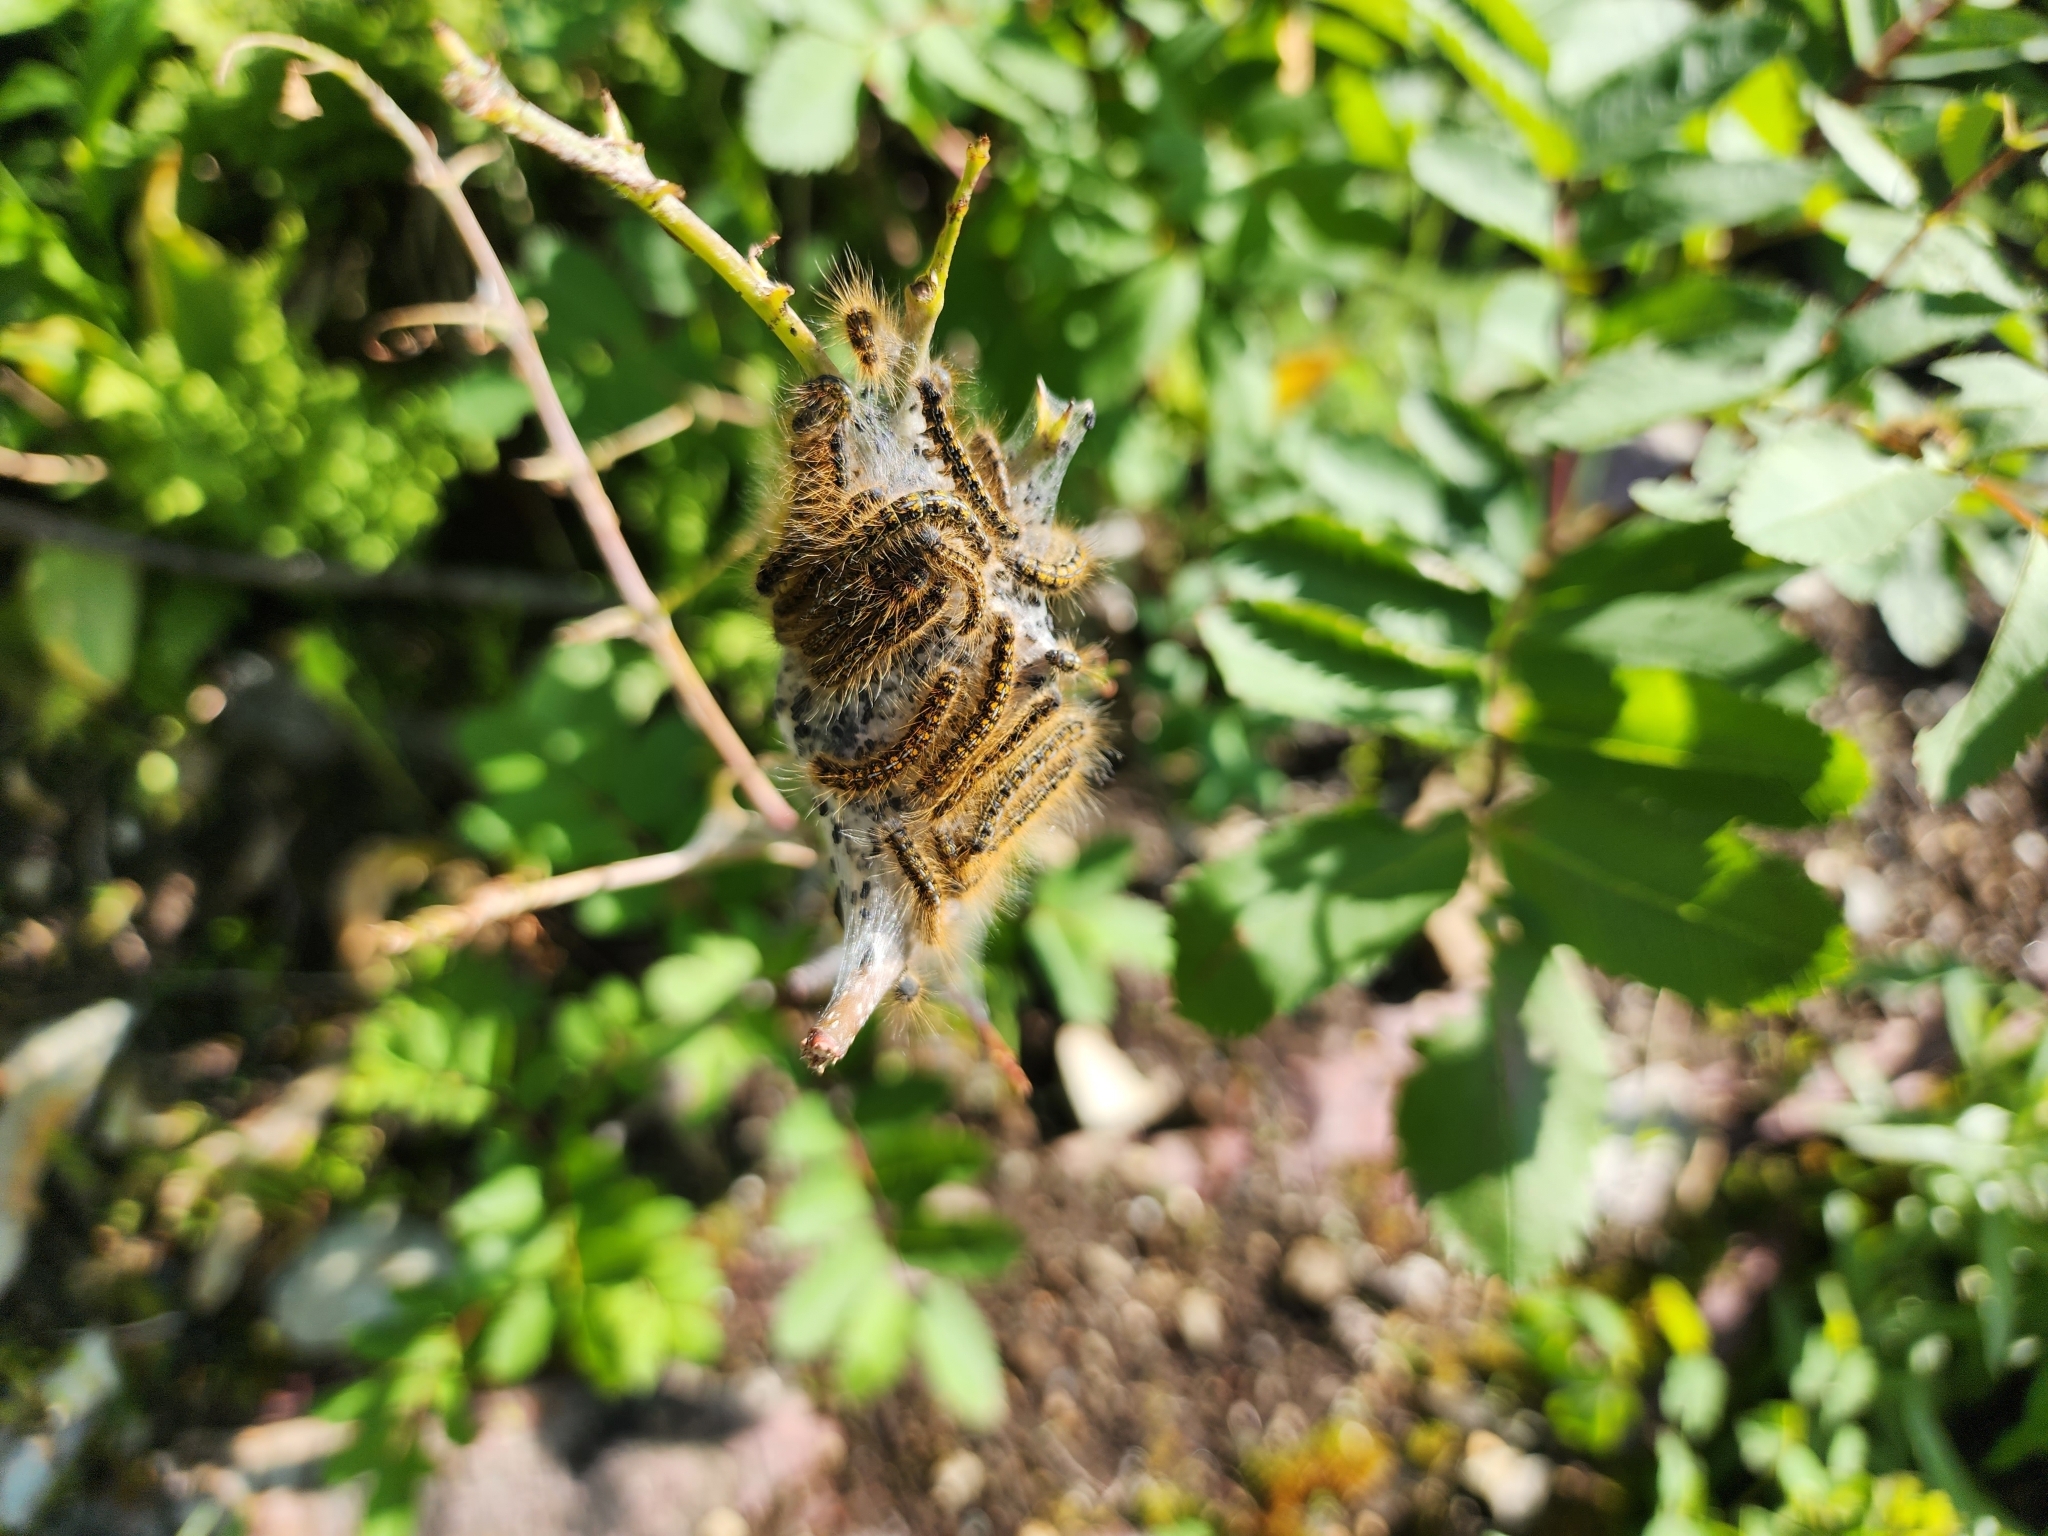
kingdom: Animalia
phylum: Arthropoda
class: Insecta
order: Lepidoptera
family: Lasiocampidae
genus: Malacosoma
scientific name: Malacosoma californica
